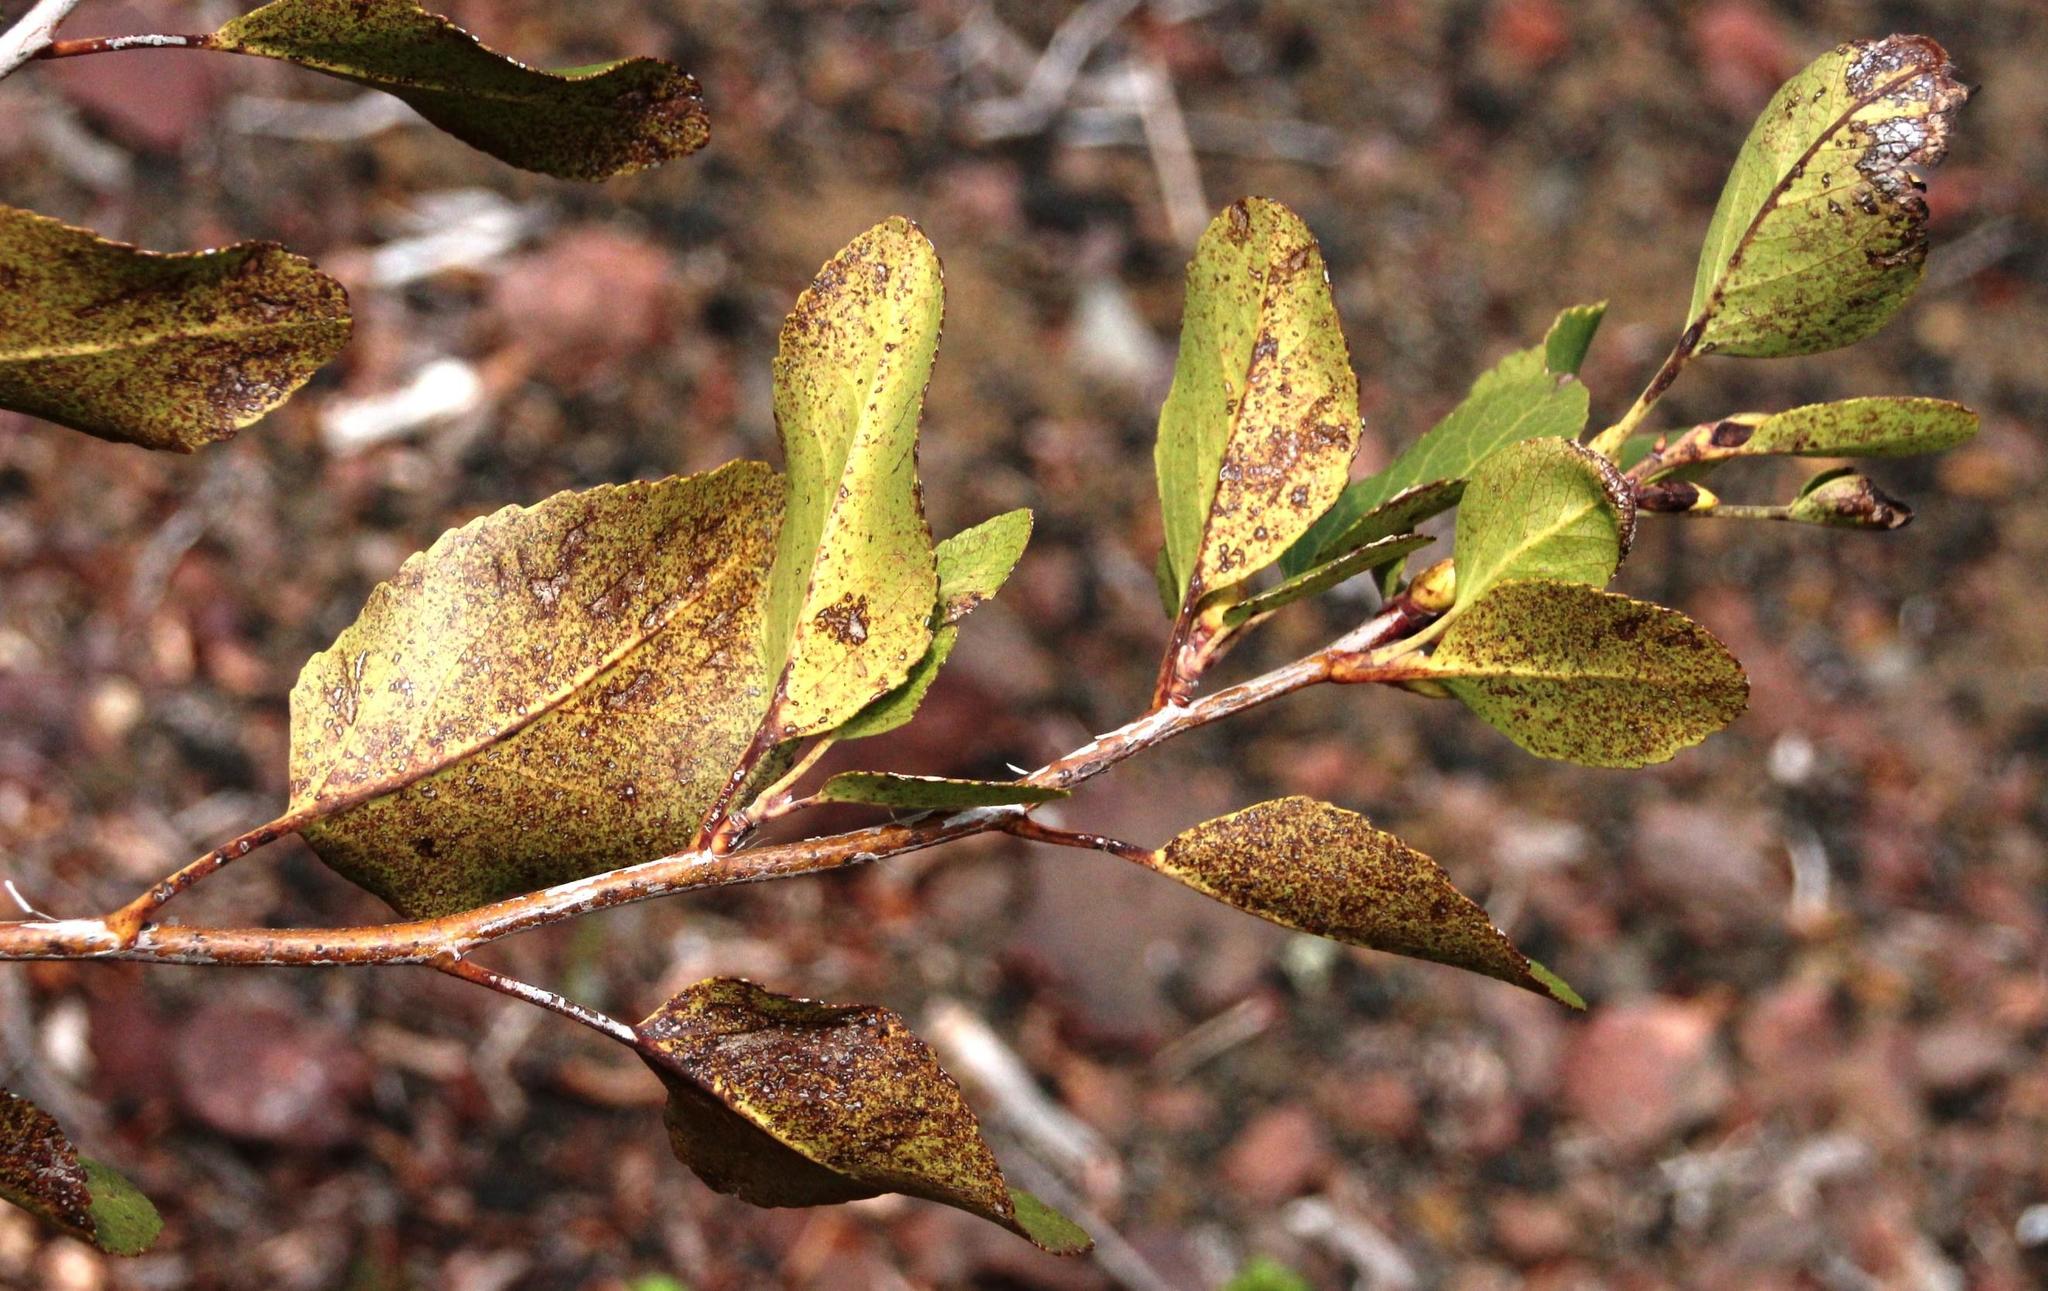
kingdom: Plantae
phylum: Tracheophyta
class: Magnoliopsida
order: Fagales
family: Nothofagaceae
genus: Nothofagus
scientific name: Nothofagus dombeyi
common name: Coigue
